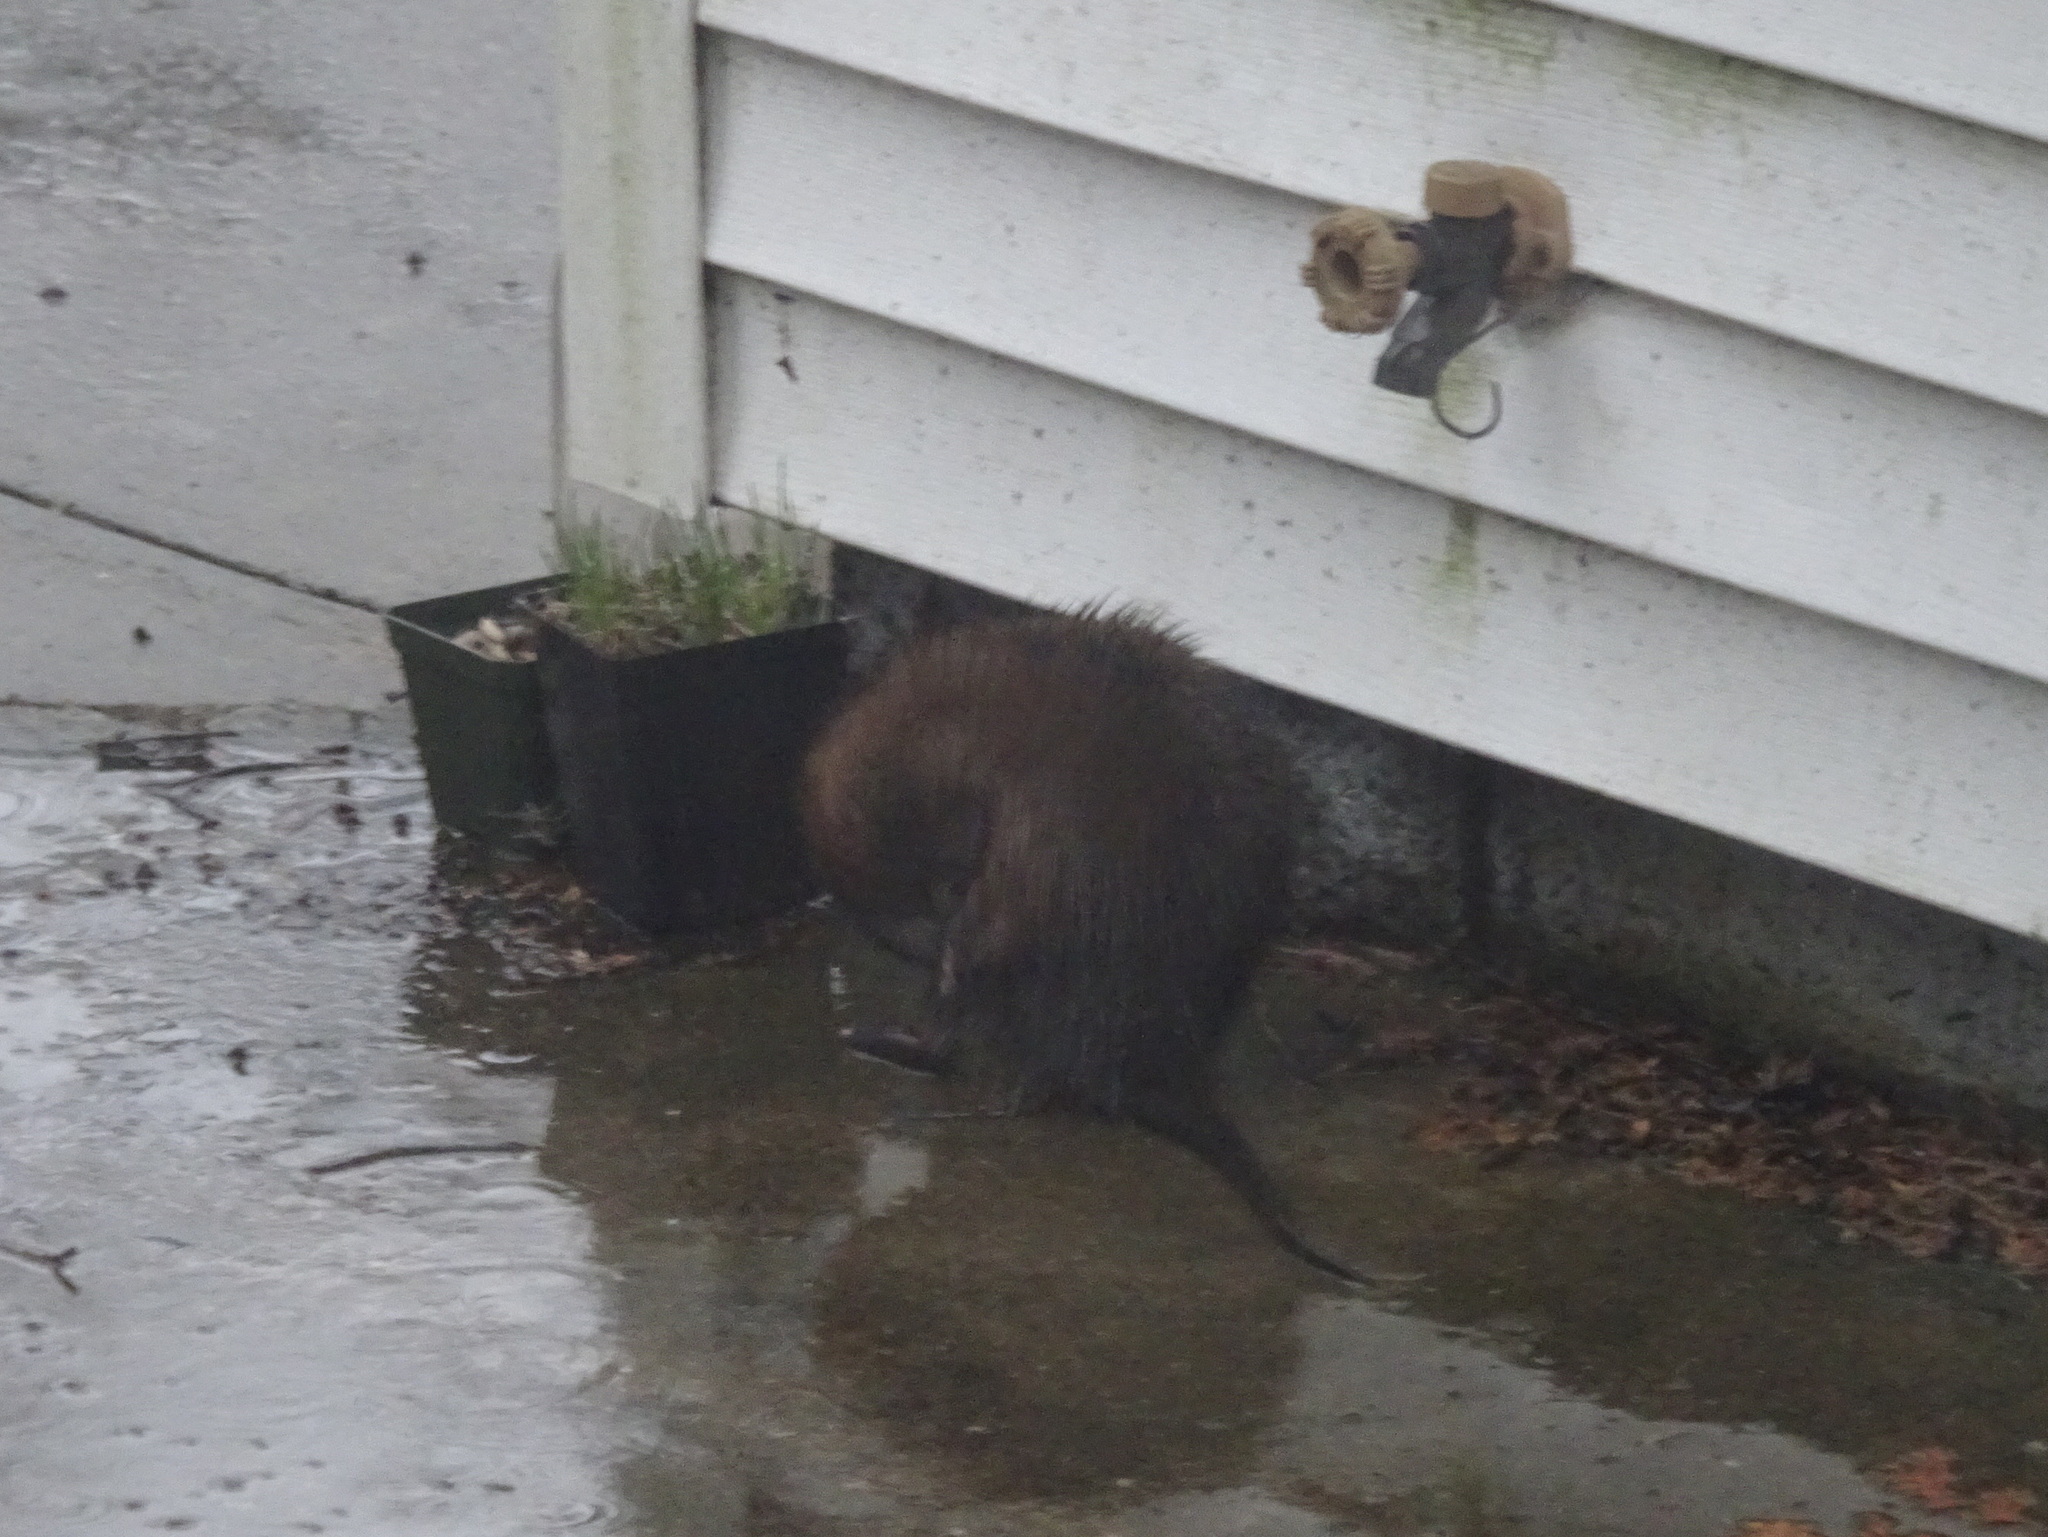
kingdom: Animalia
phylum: Chordata
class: Mammalia
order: Rodentia
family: Cricetidae
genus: Ondatra
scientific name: Ondatra zibethicus
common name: Muskrat
